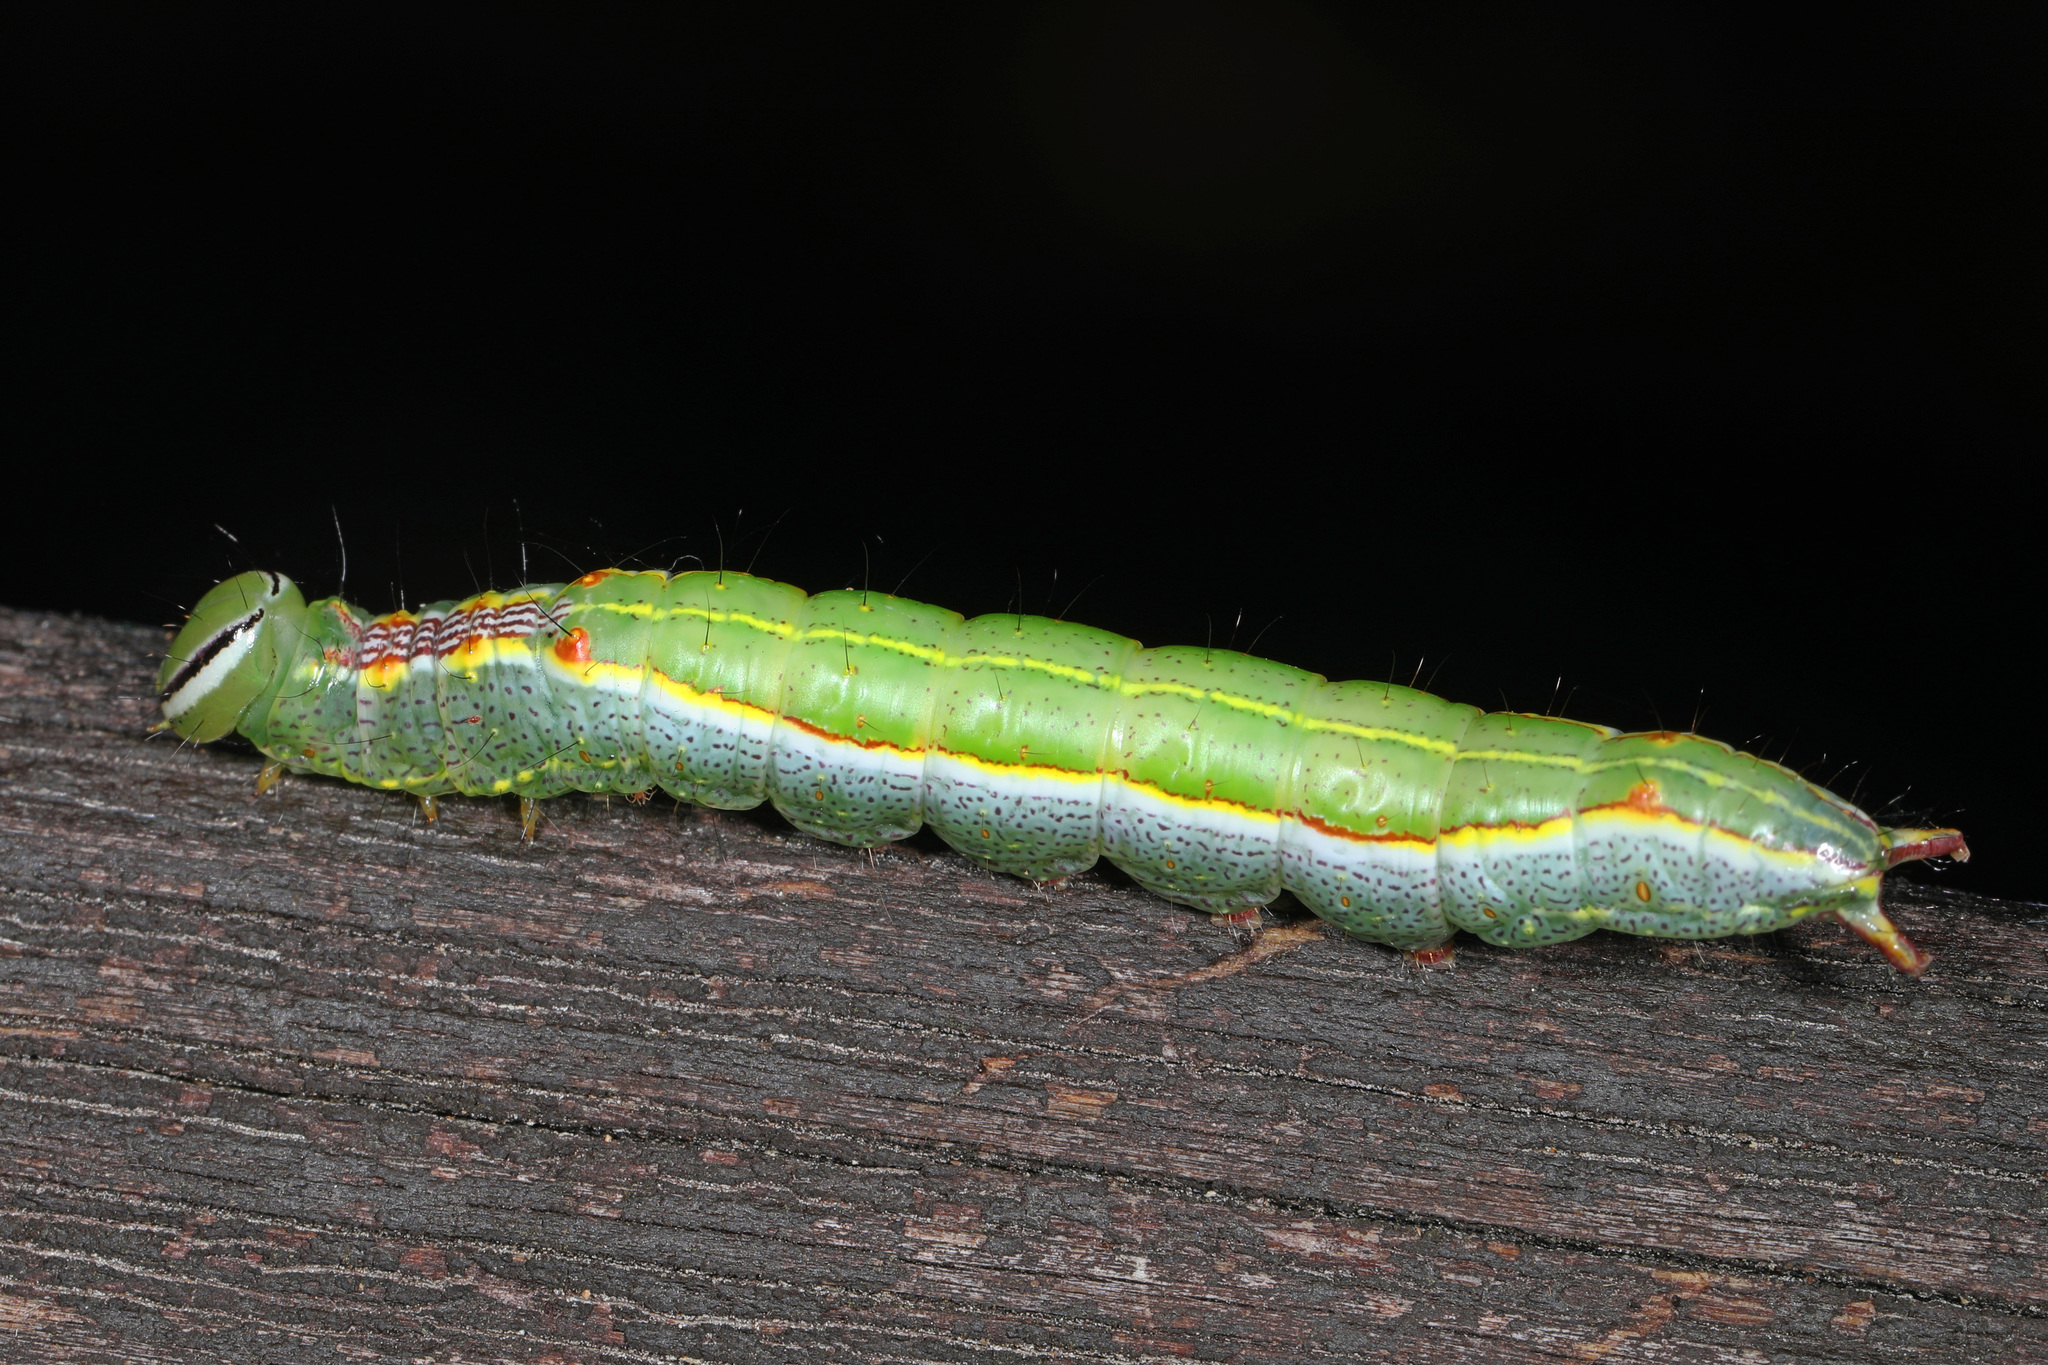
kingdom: Animalia
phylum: Arthropoda
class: Insecta
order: Lepidoptera
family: Notodontidae
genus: Lochmaeus
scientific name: Lochmaeus manteo
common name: Variable oakleaf caterpillar moth
